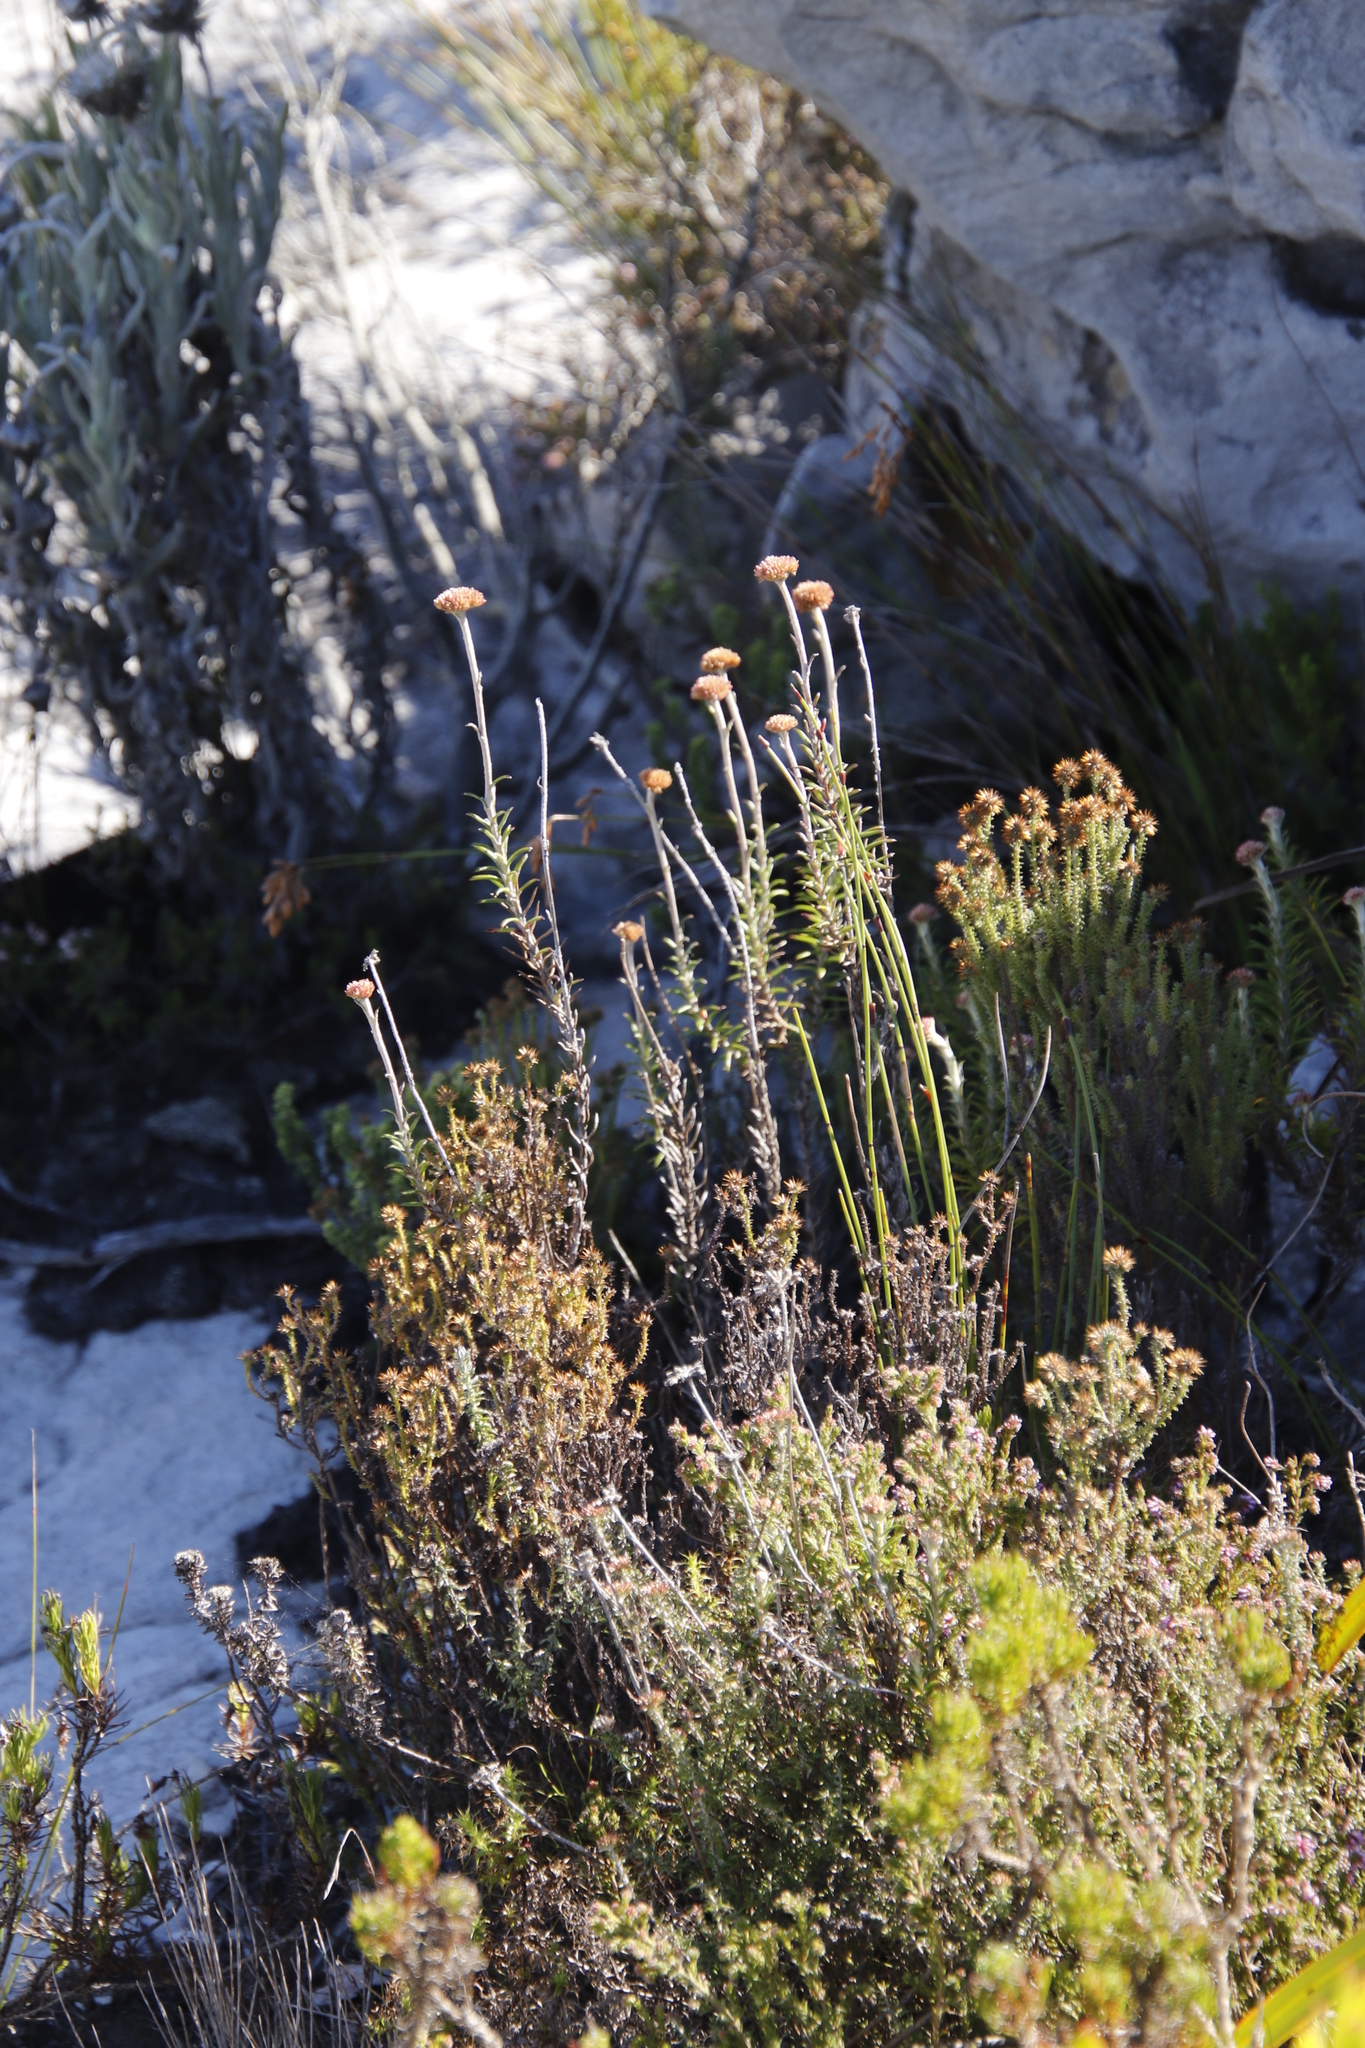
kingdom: Plantae
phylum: Tracheophyta
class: Magnoliopsida
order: Asterales
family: Asteraceae
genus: Anaxeton
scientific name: Anaxeton arborescens
